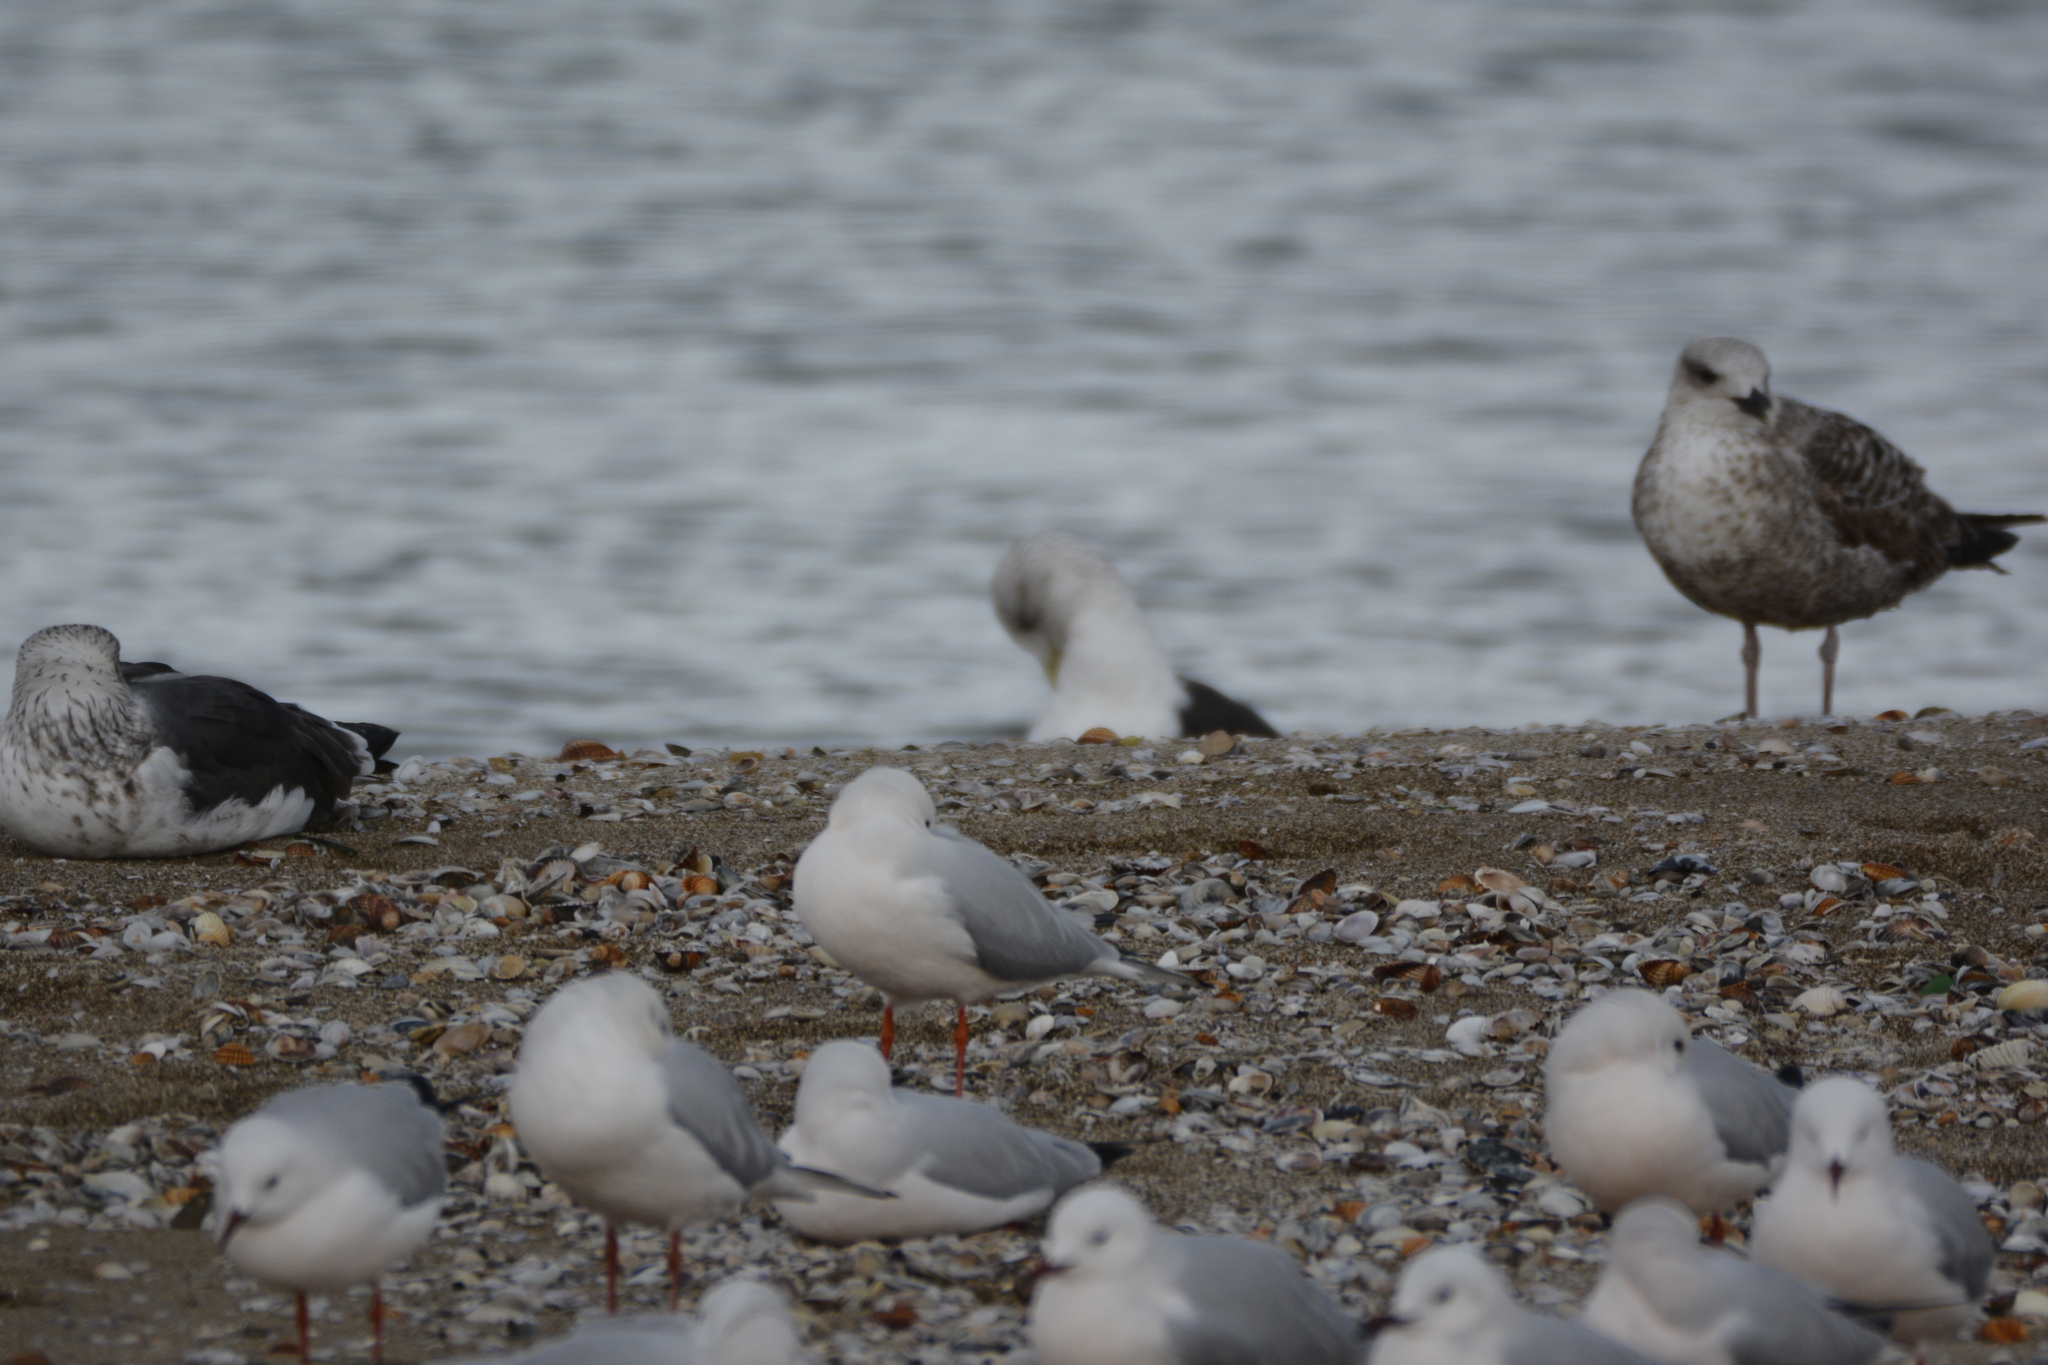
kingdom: Animalia
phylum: Chordata
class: Aves
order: Charadriiformes
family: Laridae
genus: Larus
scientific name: Larus fuscus
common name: Lesser black-backed gull
